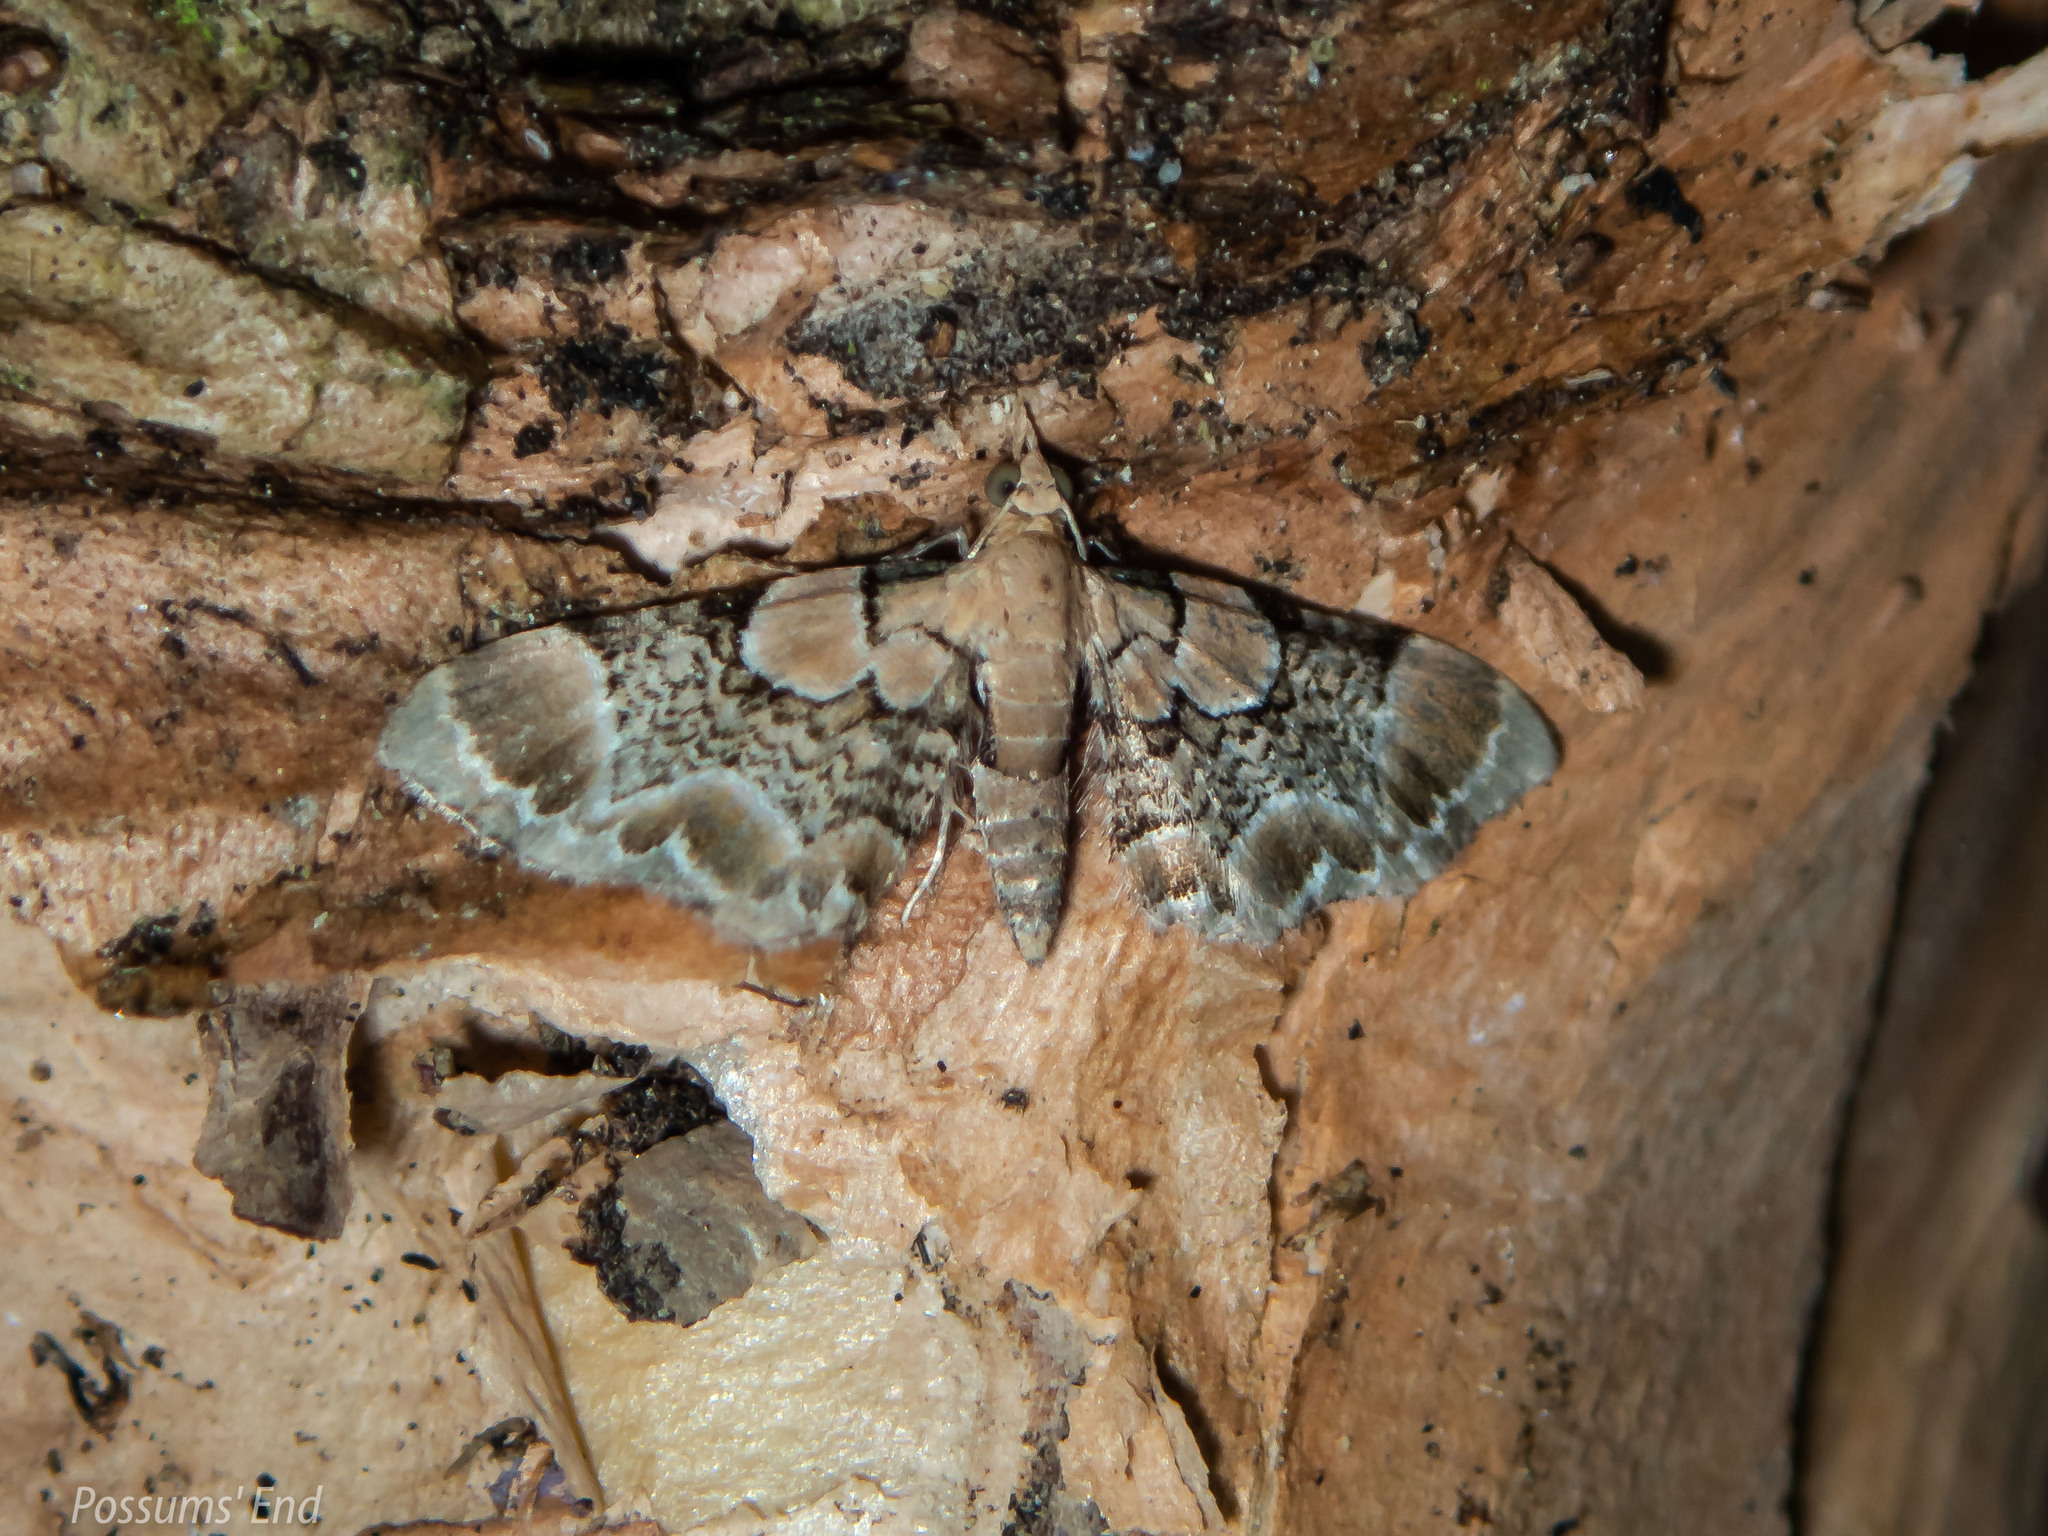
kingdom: Animalia
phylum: Arthropoda
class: Insecta
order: Lepidoptera
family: Geometridae
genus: Chloroclystis
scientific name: Chloroclystis
